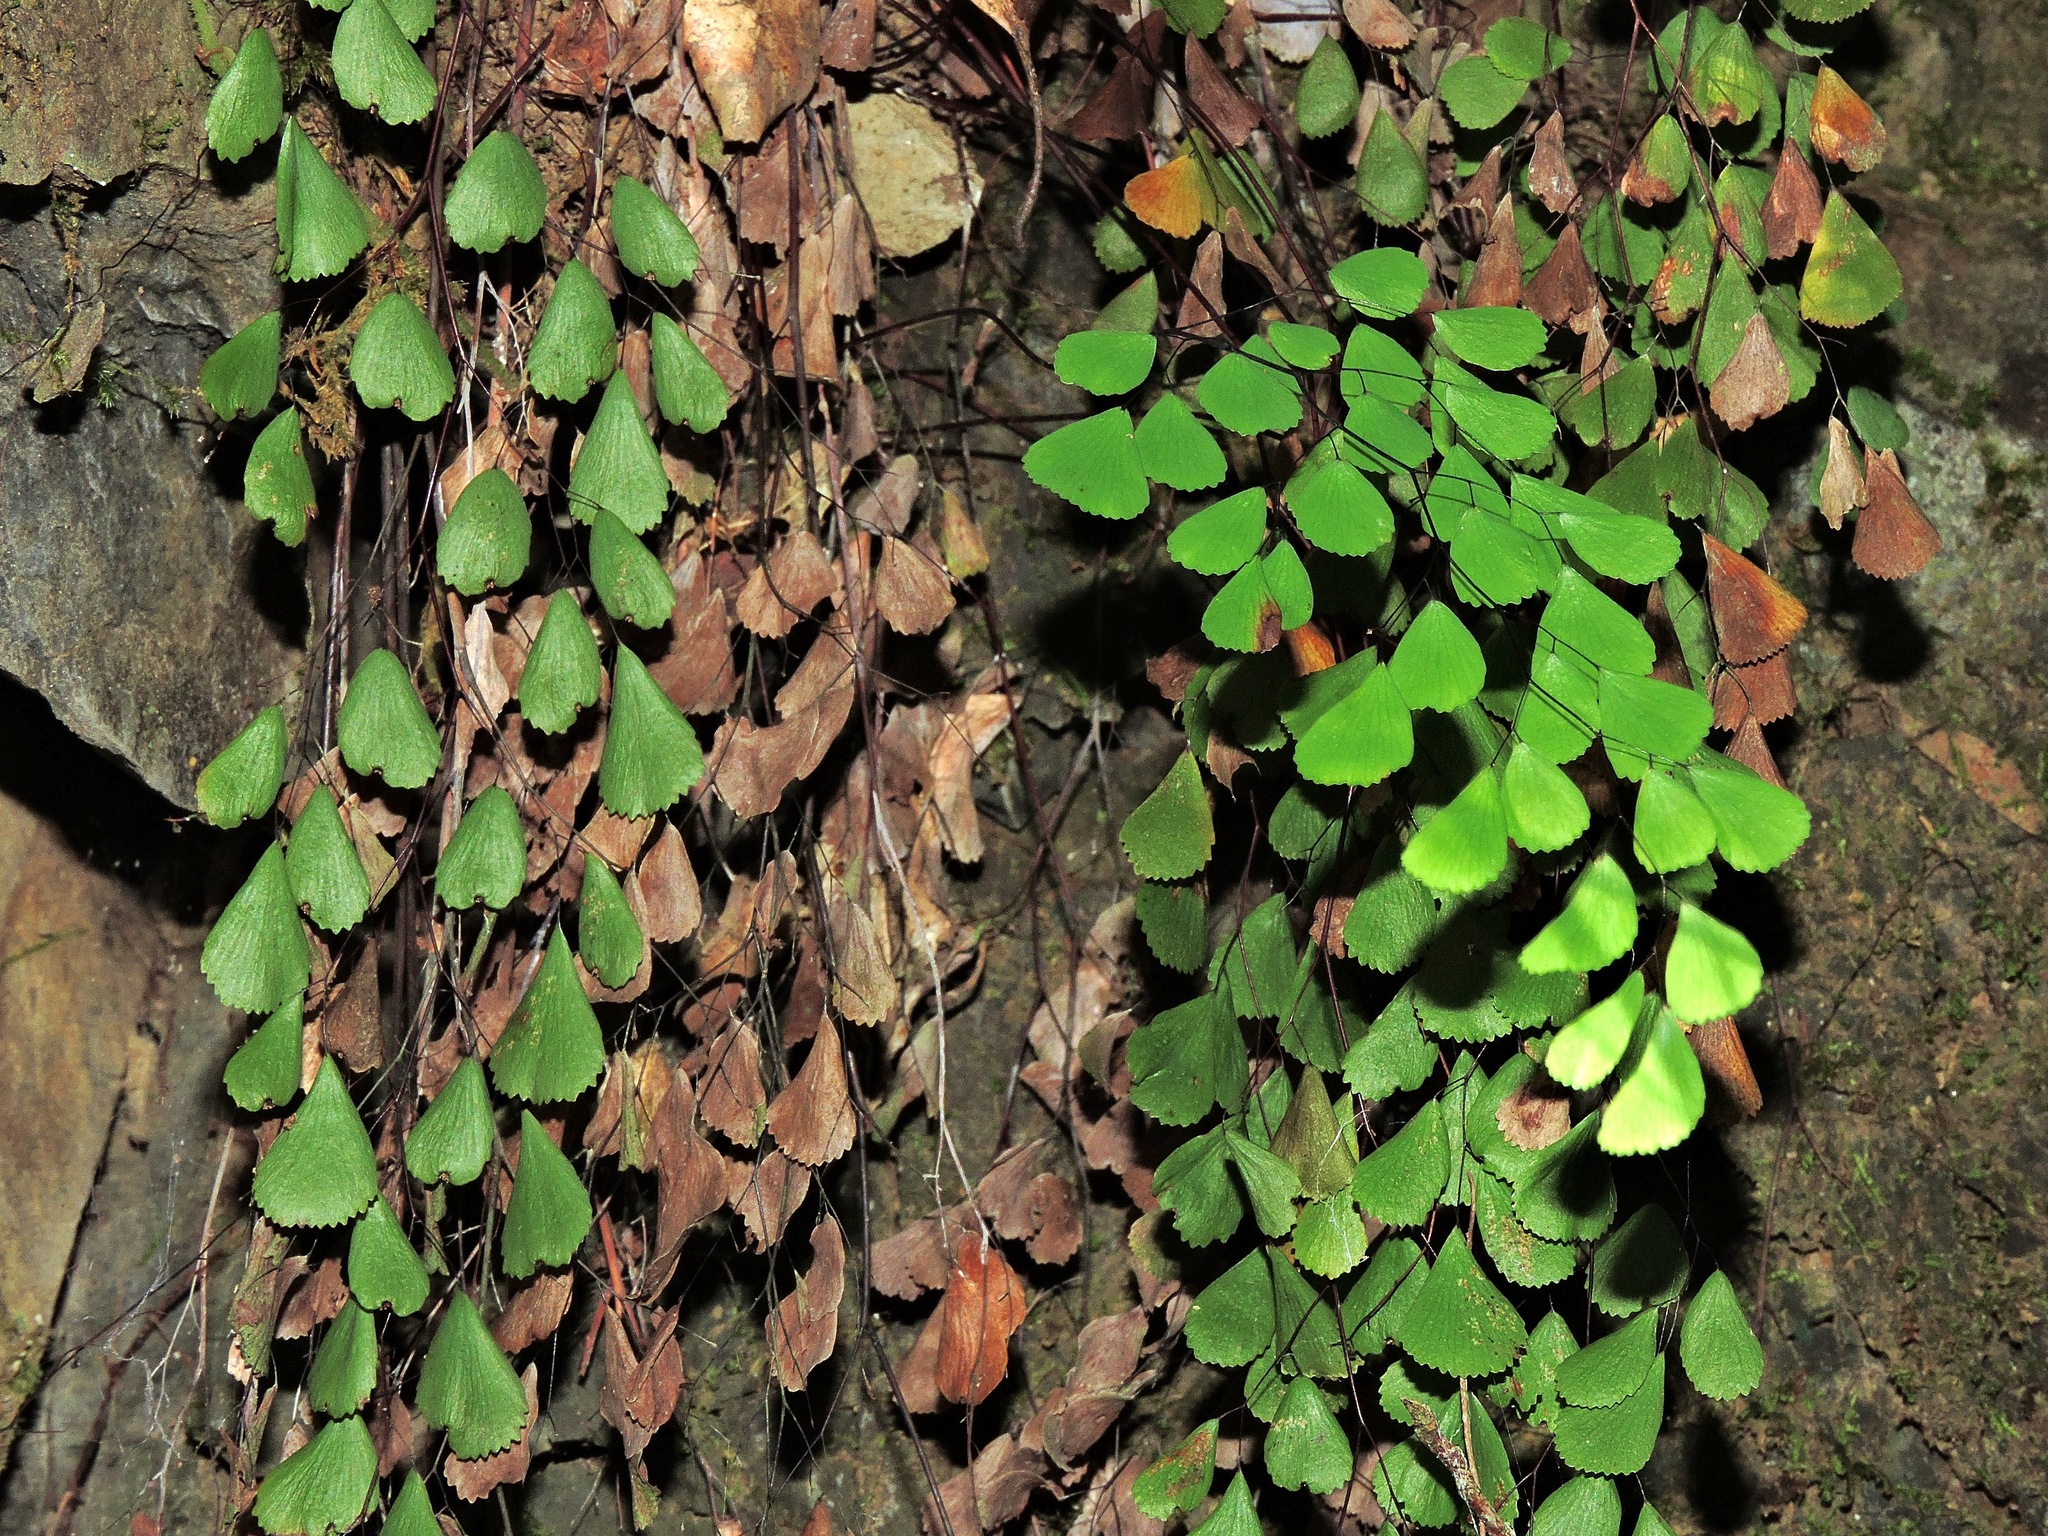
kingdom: Plantae
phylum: Tracheophyta
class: Polypodiopsida
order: Polypodiales
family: Pteridaceae
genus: Adiantum
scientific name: Adiantum monochlamys
